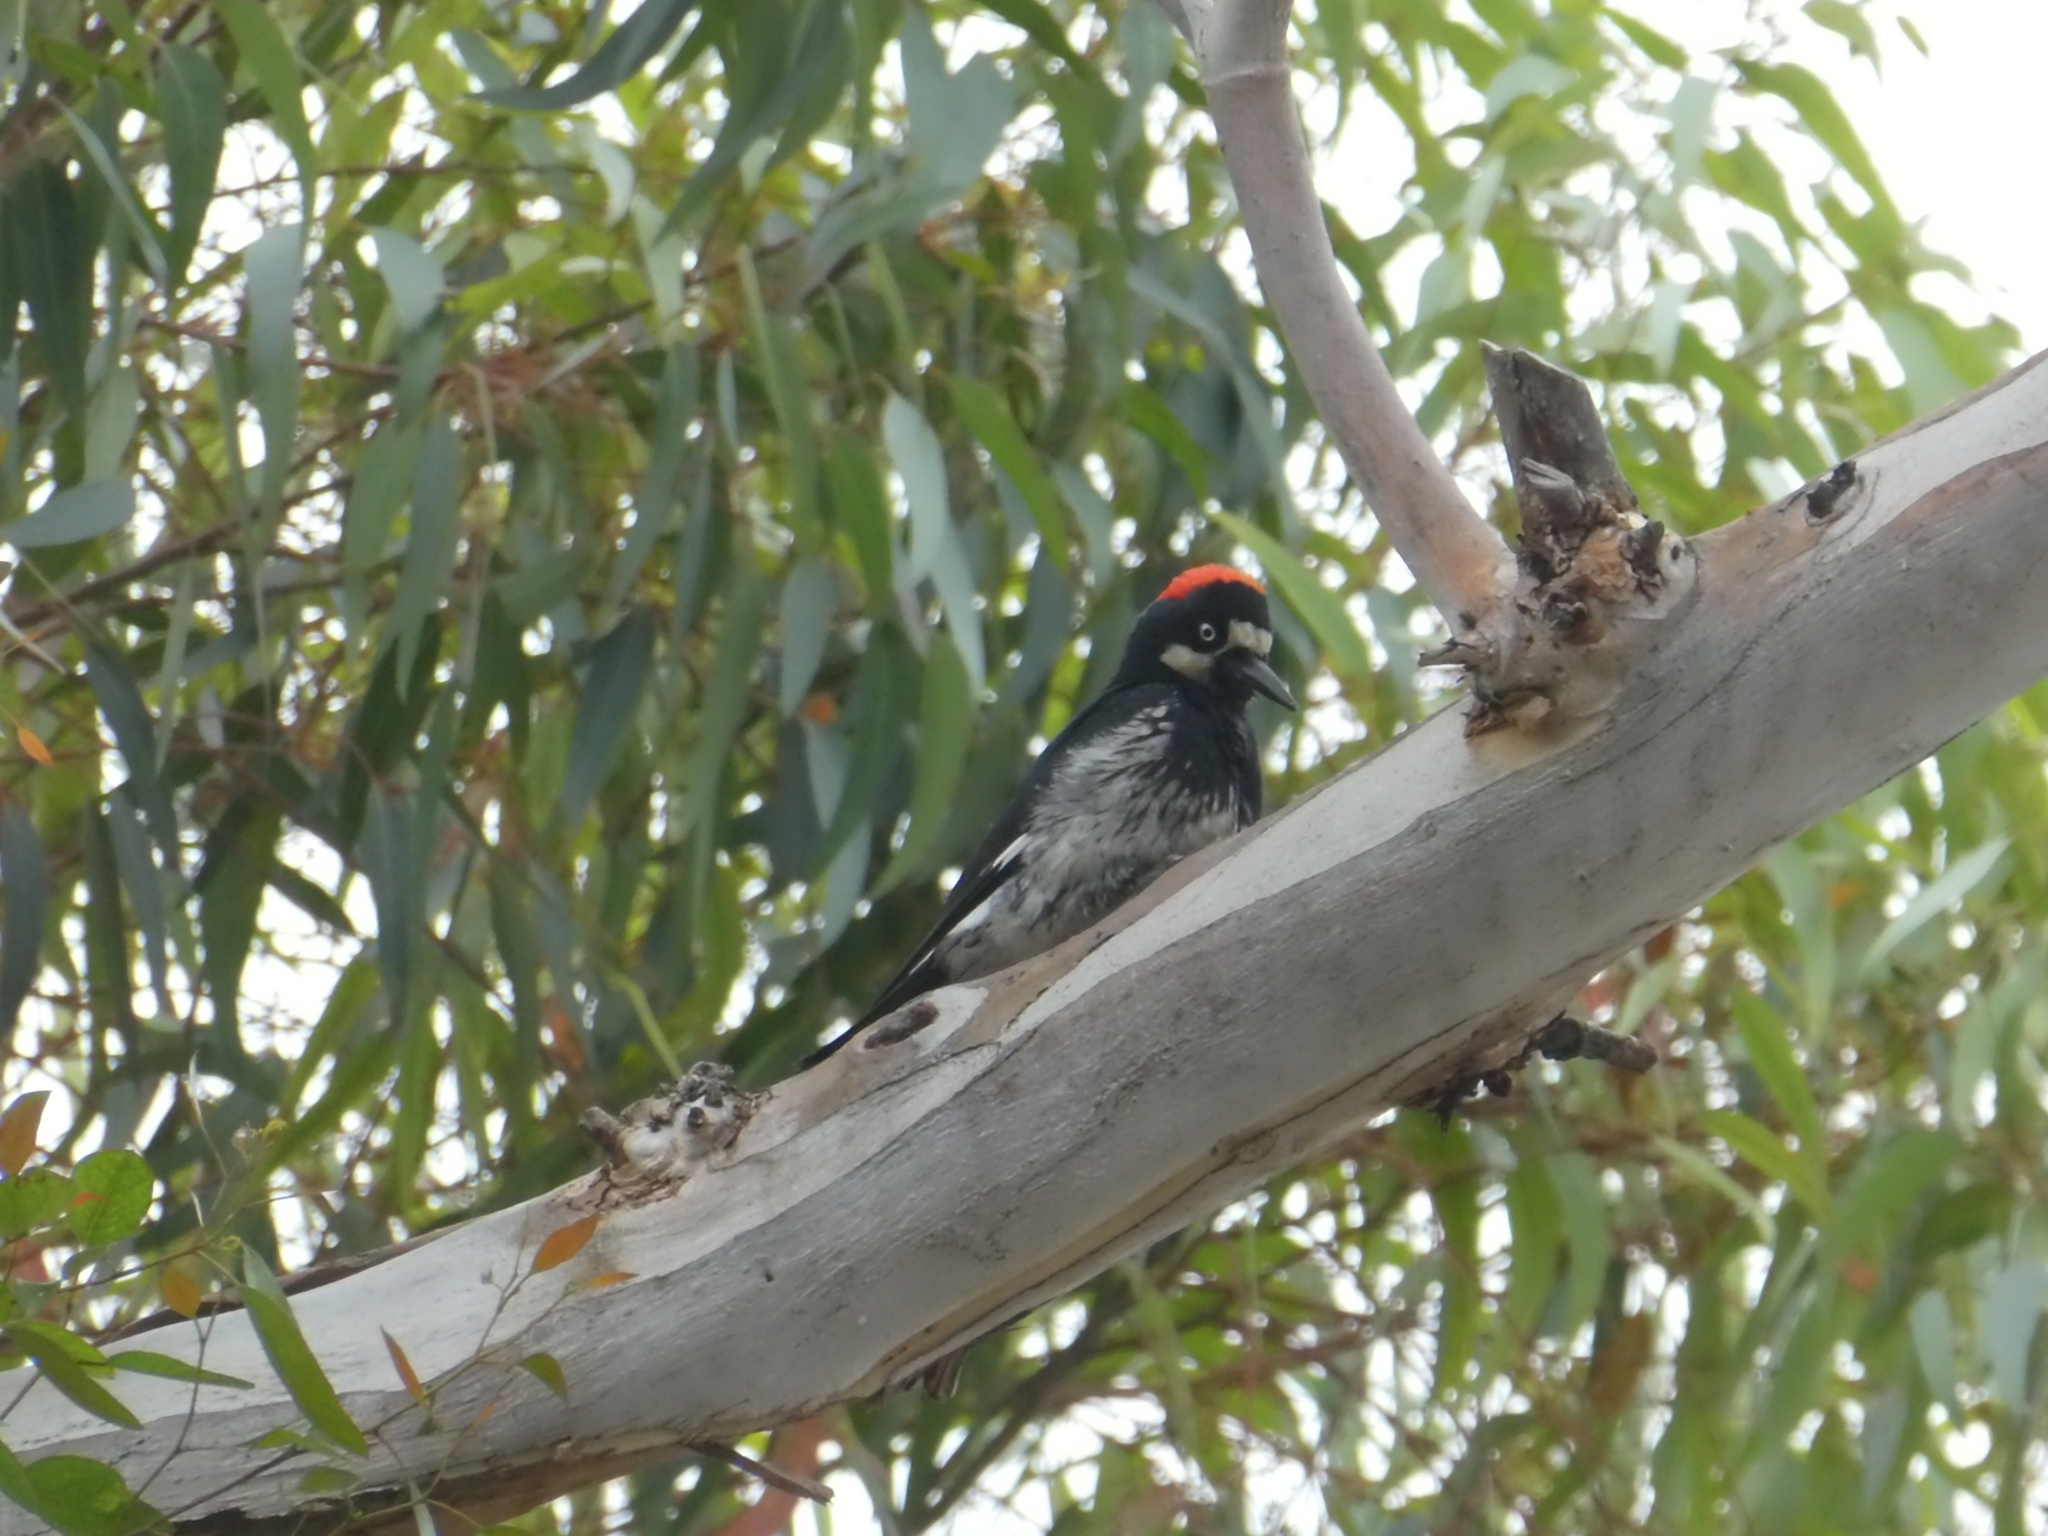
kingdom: Animalia
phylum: Chordata
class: Aves
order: Piciformes
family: Picidae
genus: Melanerpes
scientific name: Melanerpes formicivorus
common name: Acorn woodpecker
